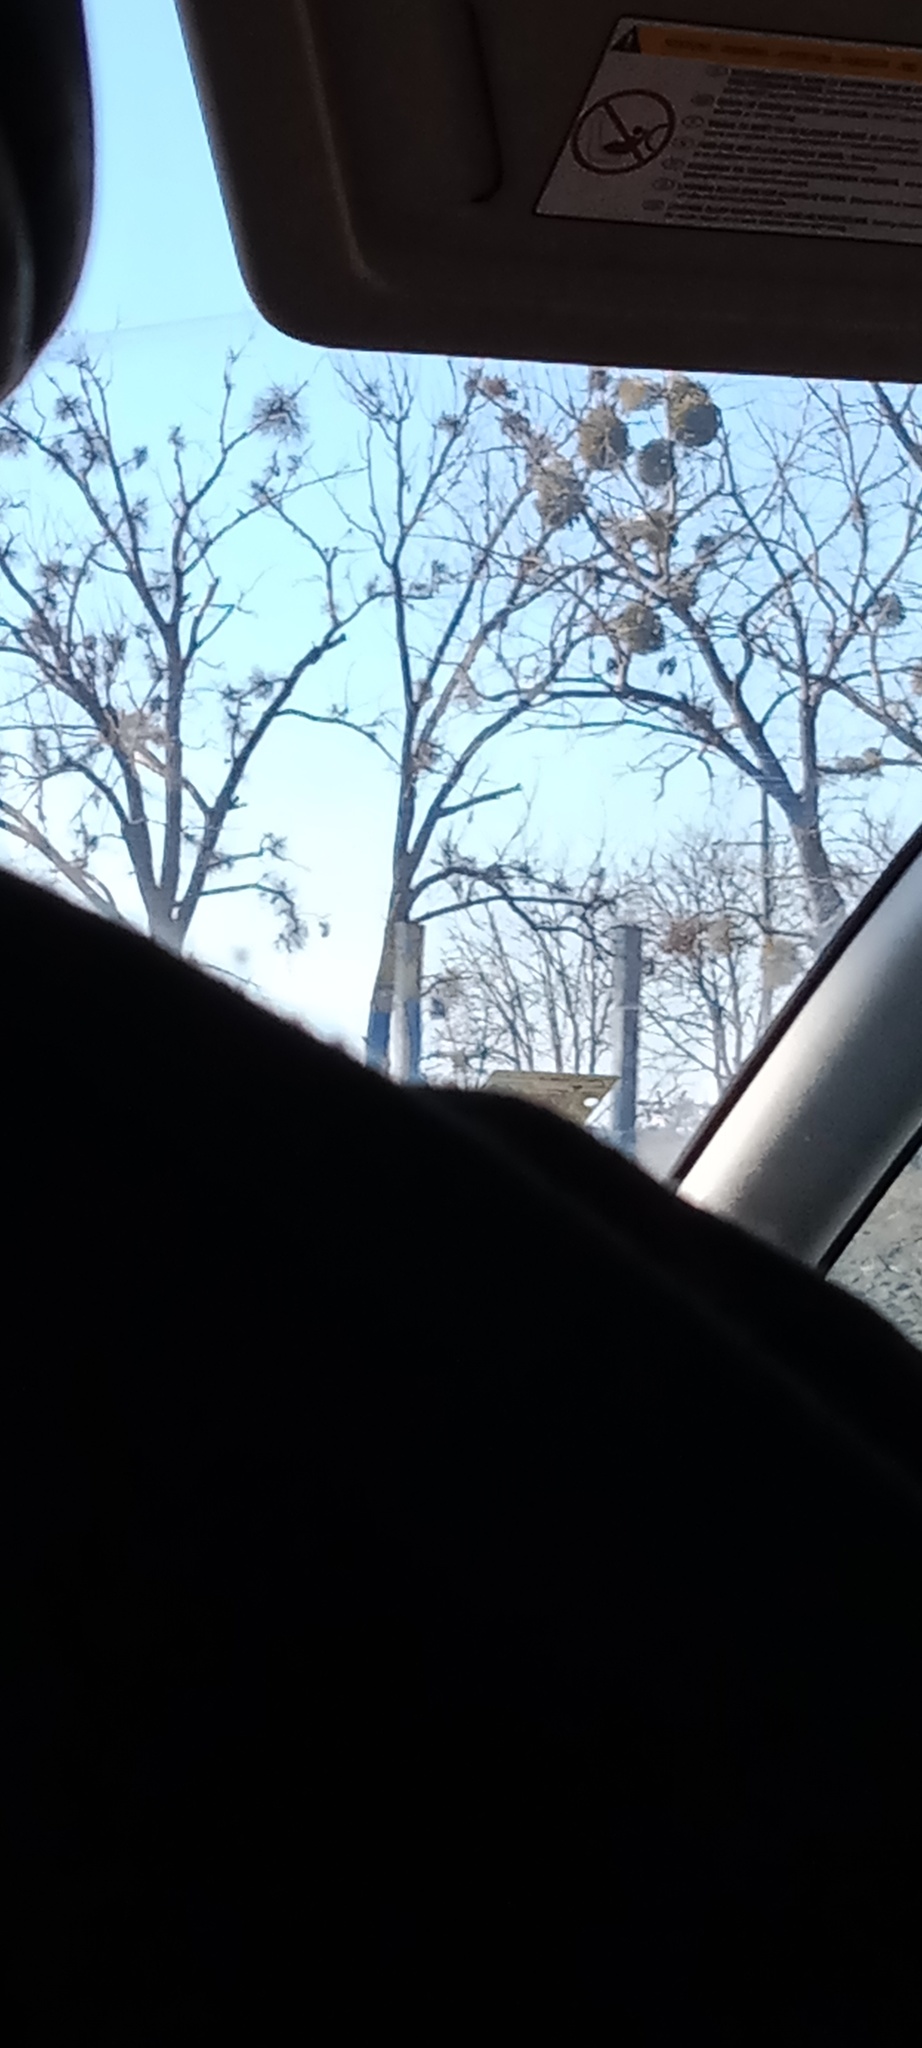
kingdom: Plantae
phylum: Tracheophyta
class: Magnoliopsida
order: Santalales
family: Viscaceae
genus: Viscum
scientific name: Viscum album
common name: Mistletoe
